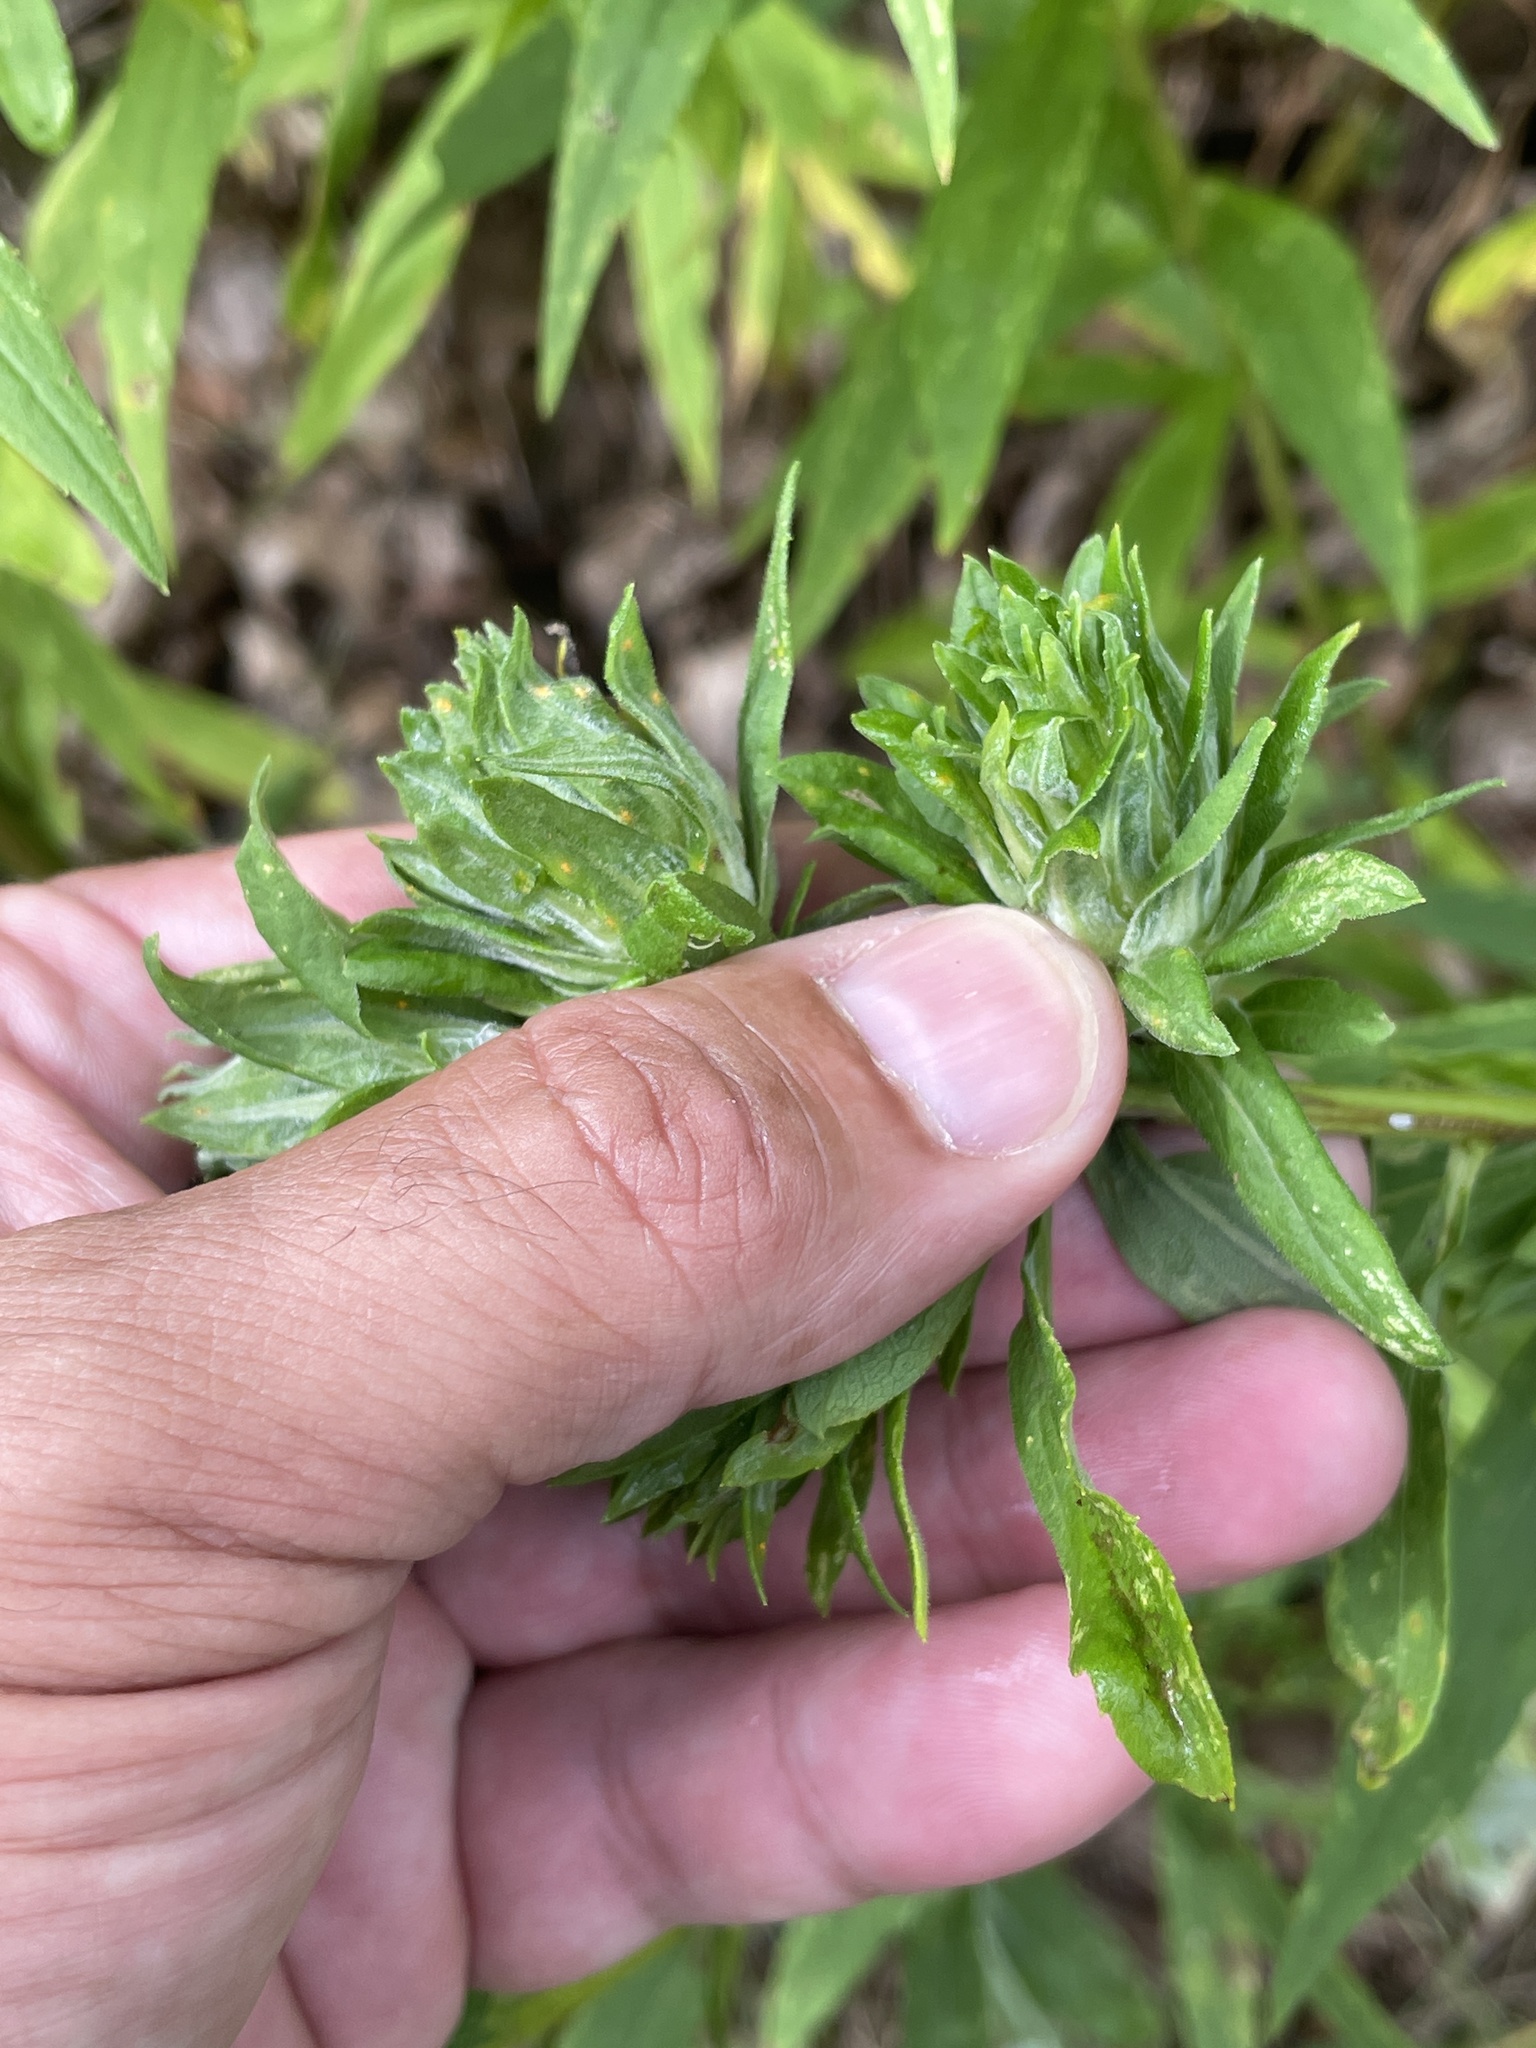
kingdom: Animalia
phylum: Arthropoda
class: Insecta
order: Diptera
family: Tephritidae
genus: Procecidochares
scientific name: Procecidochares atra
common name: Goldenrod brussels sprout gall fly
